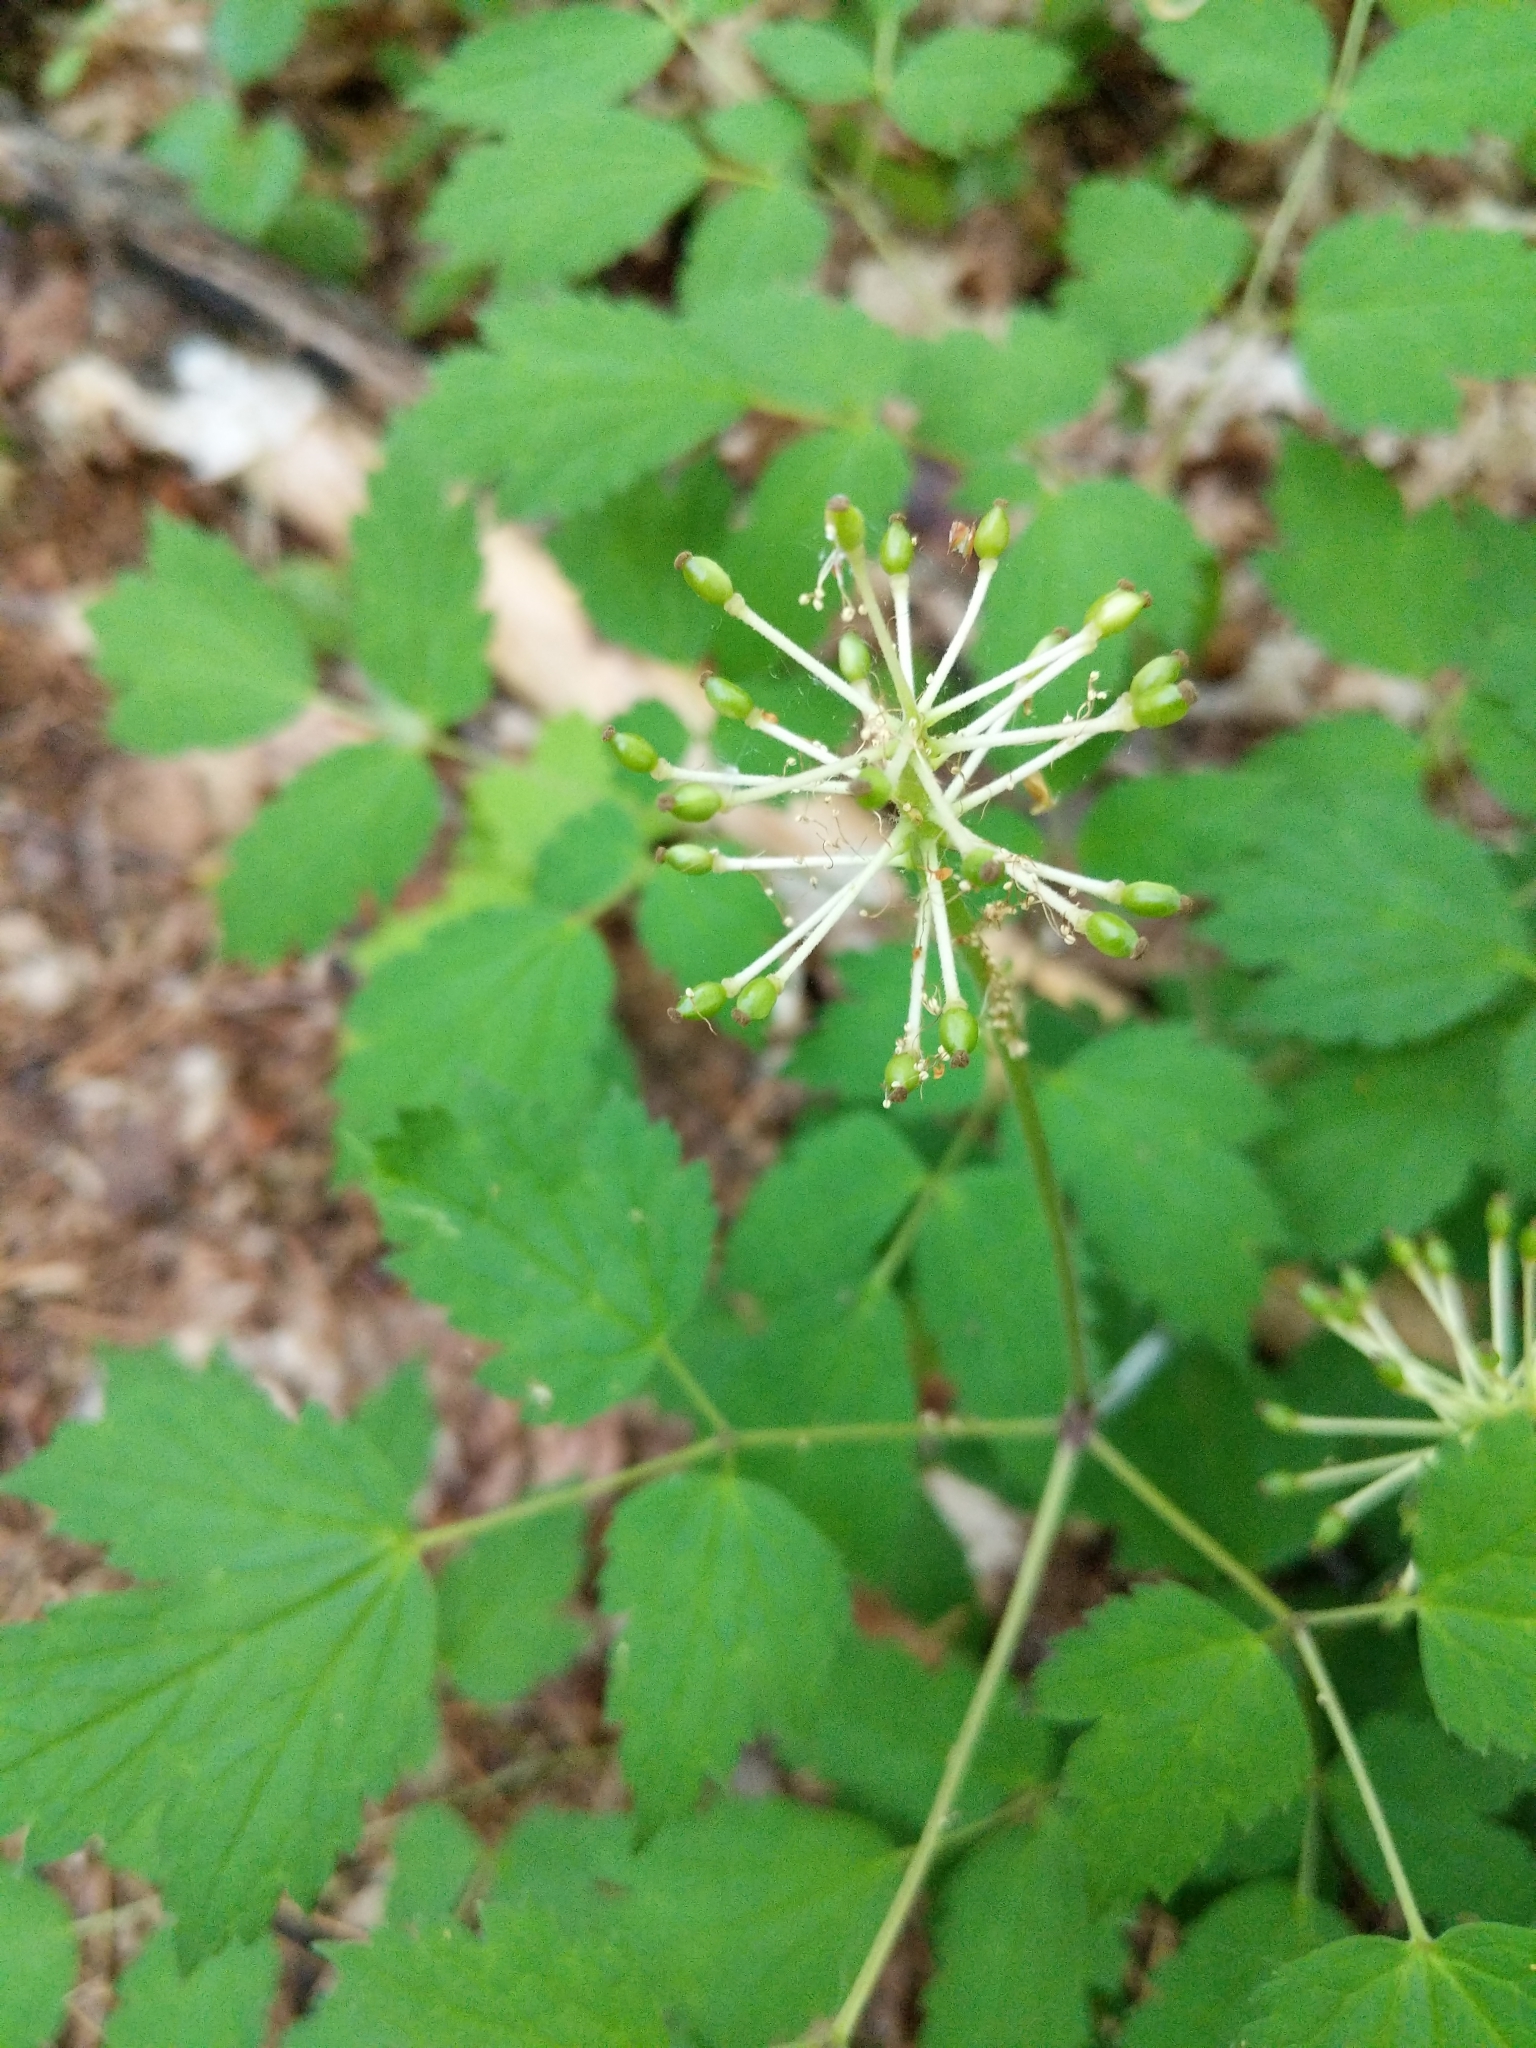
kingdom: Plantae
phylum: Tracheophyta
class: Magnoliopsida
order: Ranunculales
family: Ranunculaceae
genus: Actaea
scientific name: Actaea rubra
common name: Red baneberry
